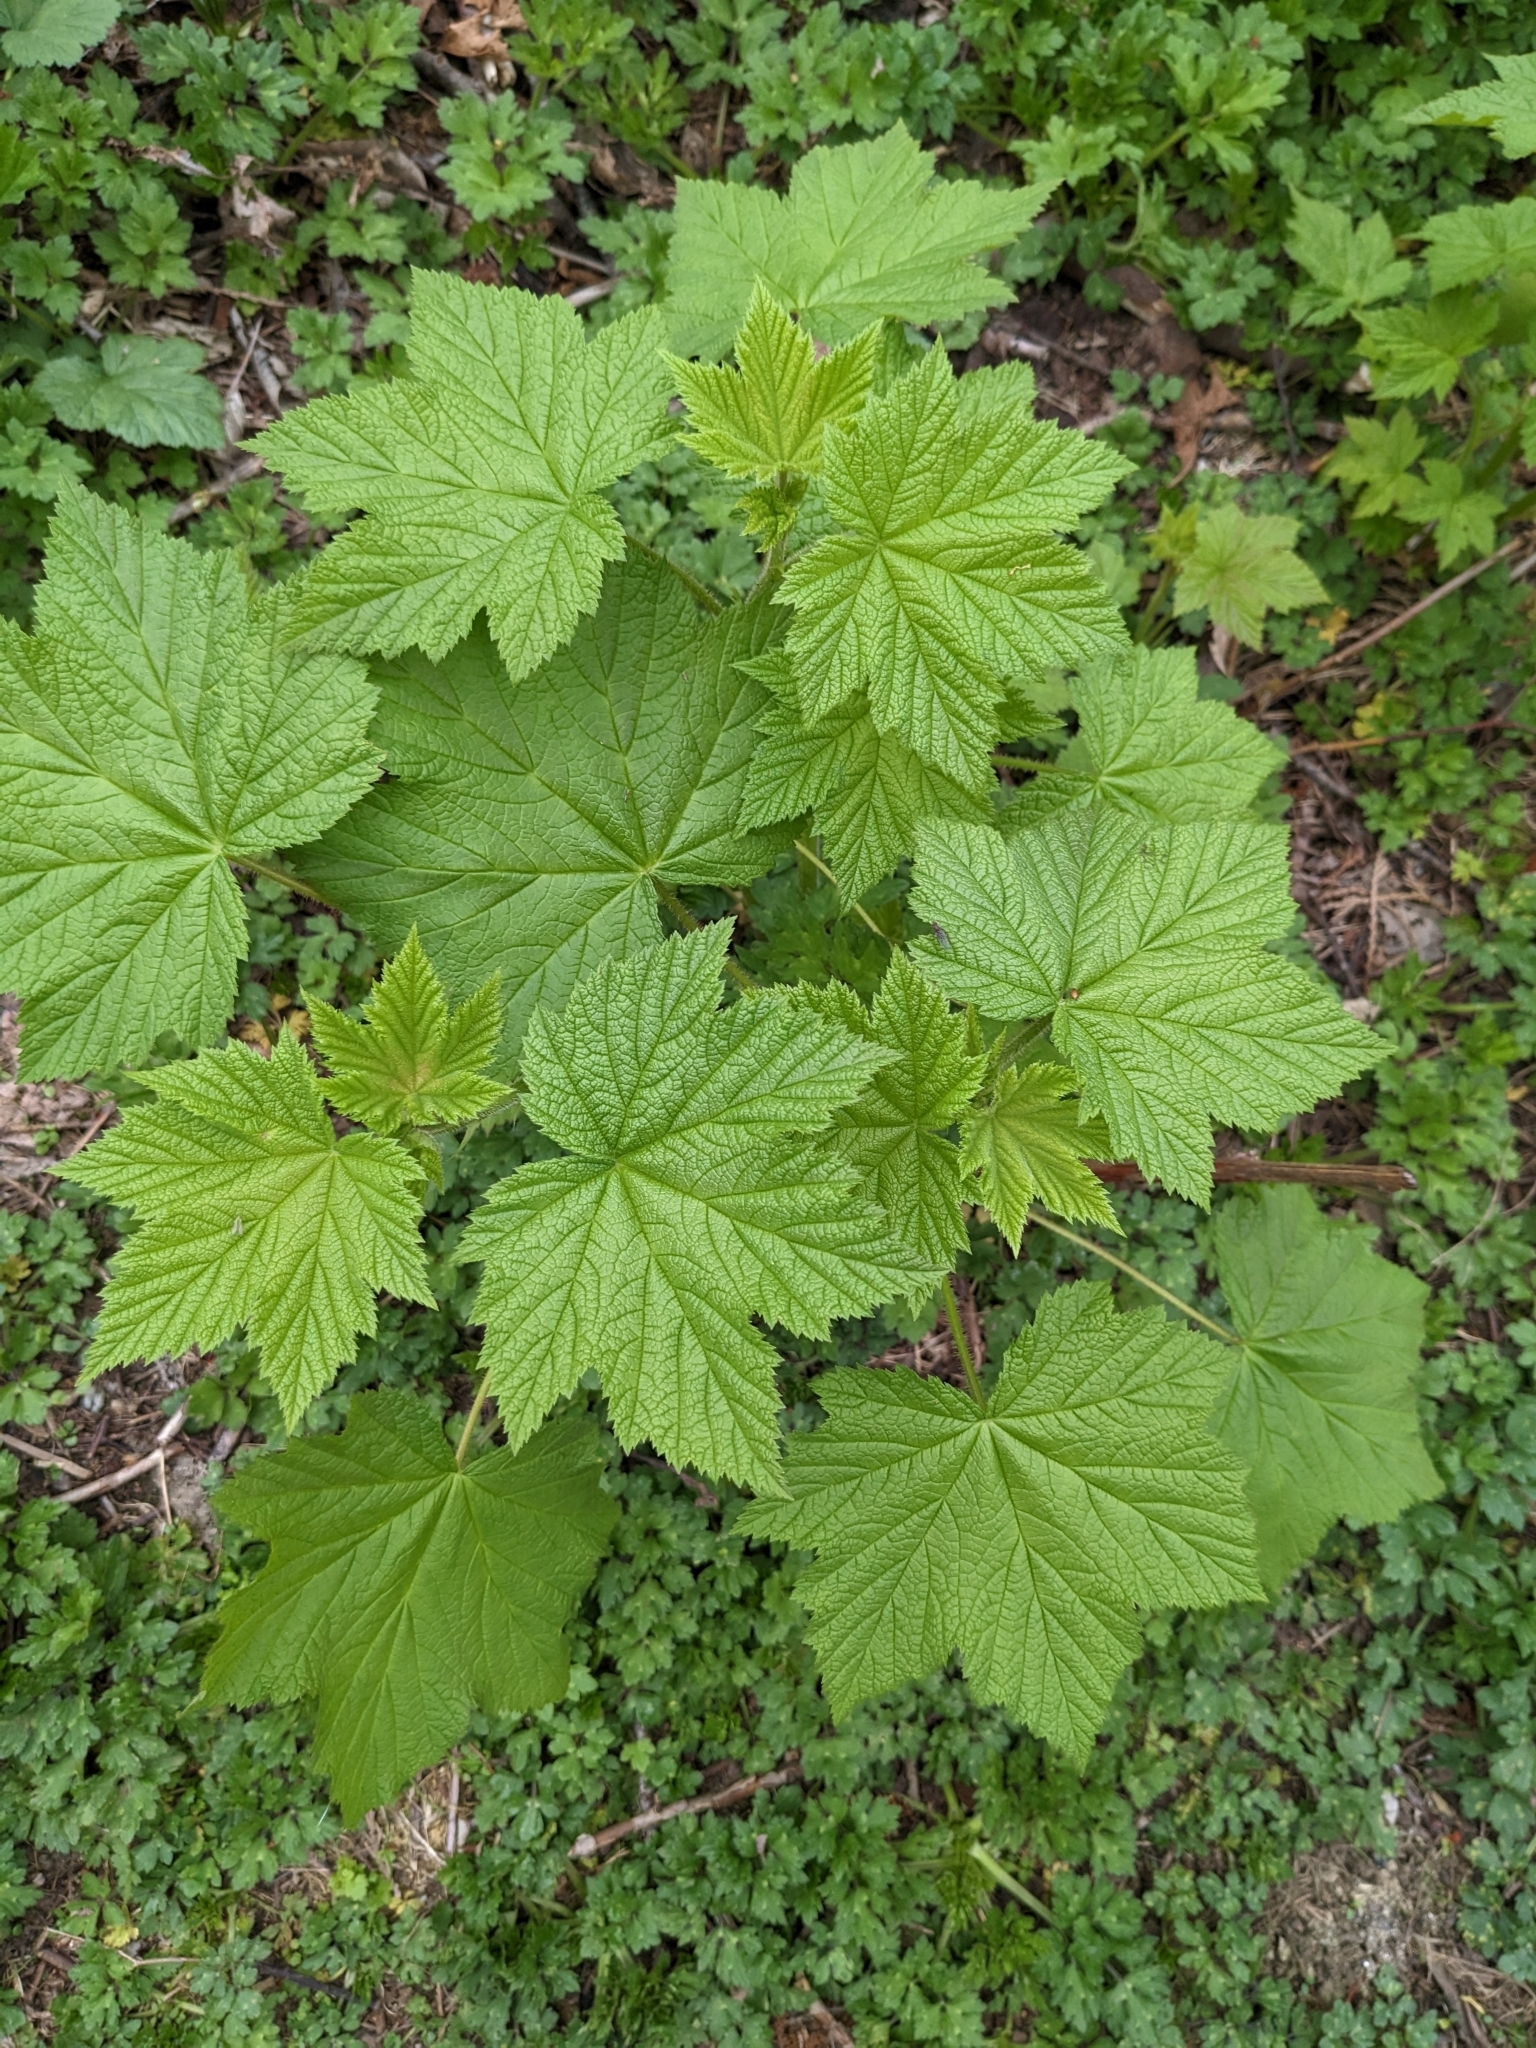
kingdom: Plantae
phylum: Tracheophyta
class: Magnoliopsida
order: Rosales
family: Rosaceae
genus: Rubus
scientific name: Rubus parviflorus
